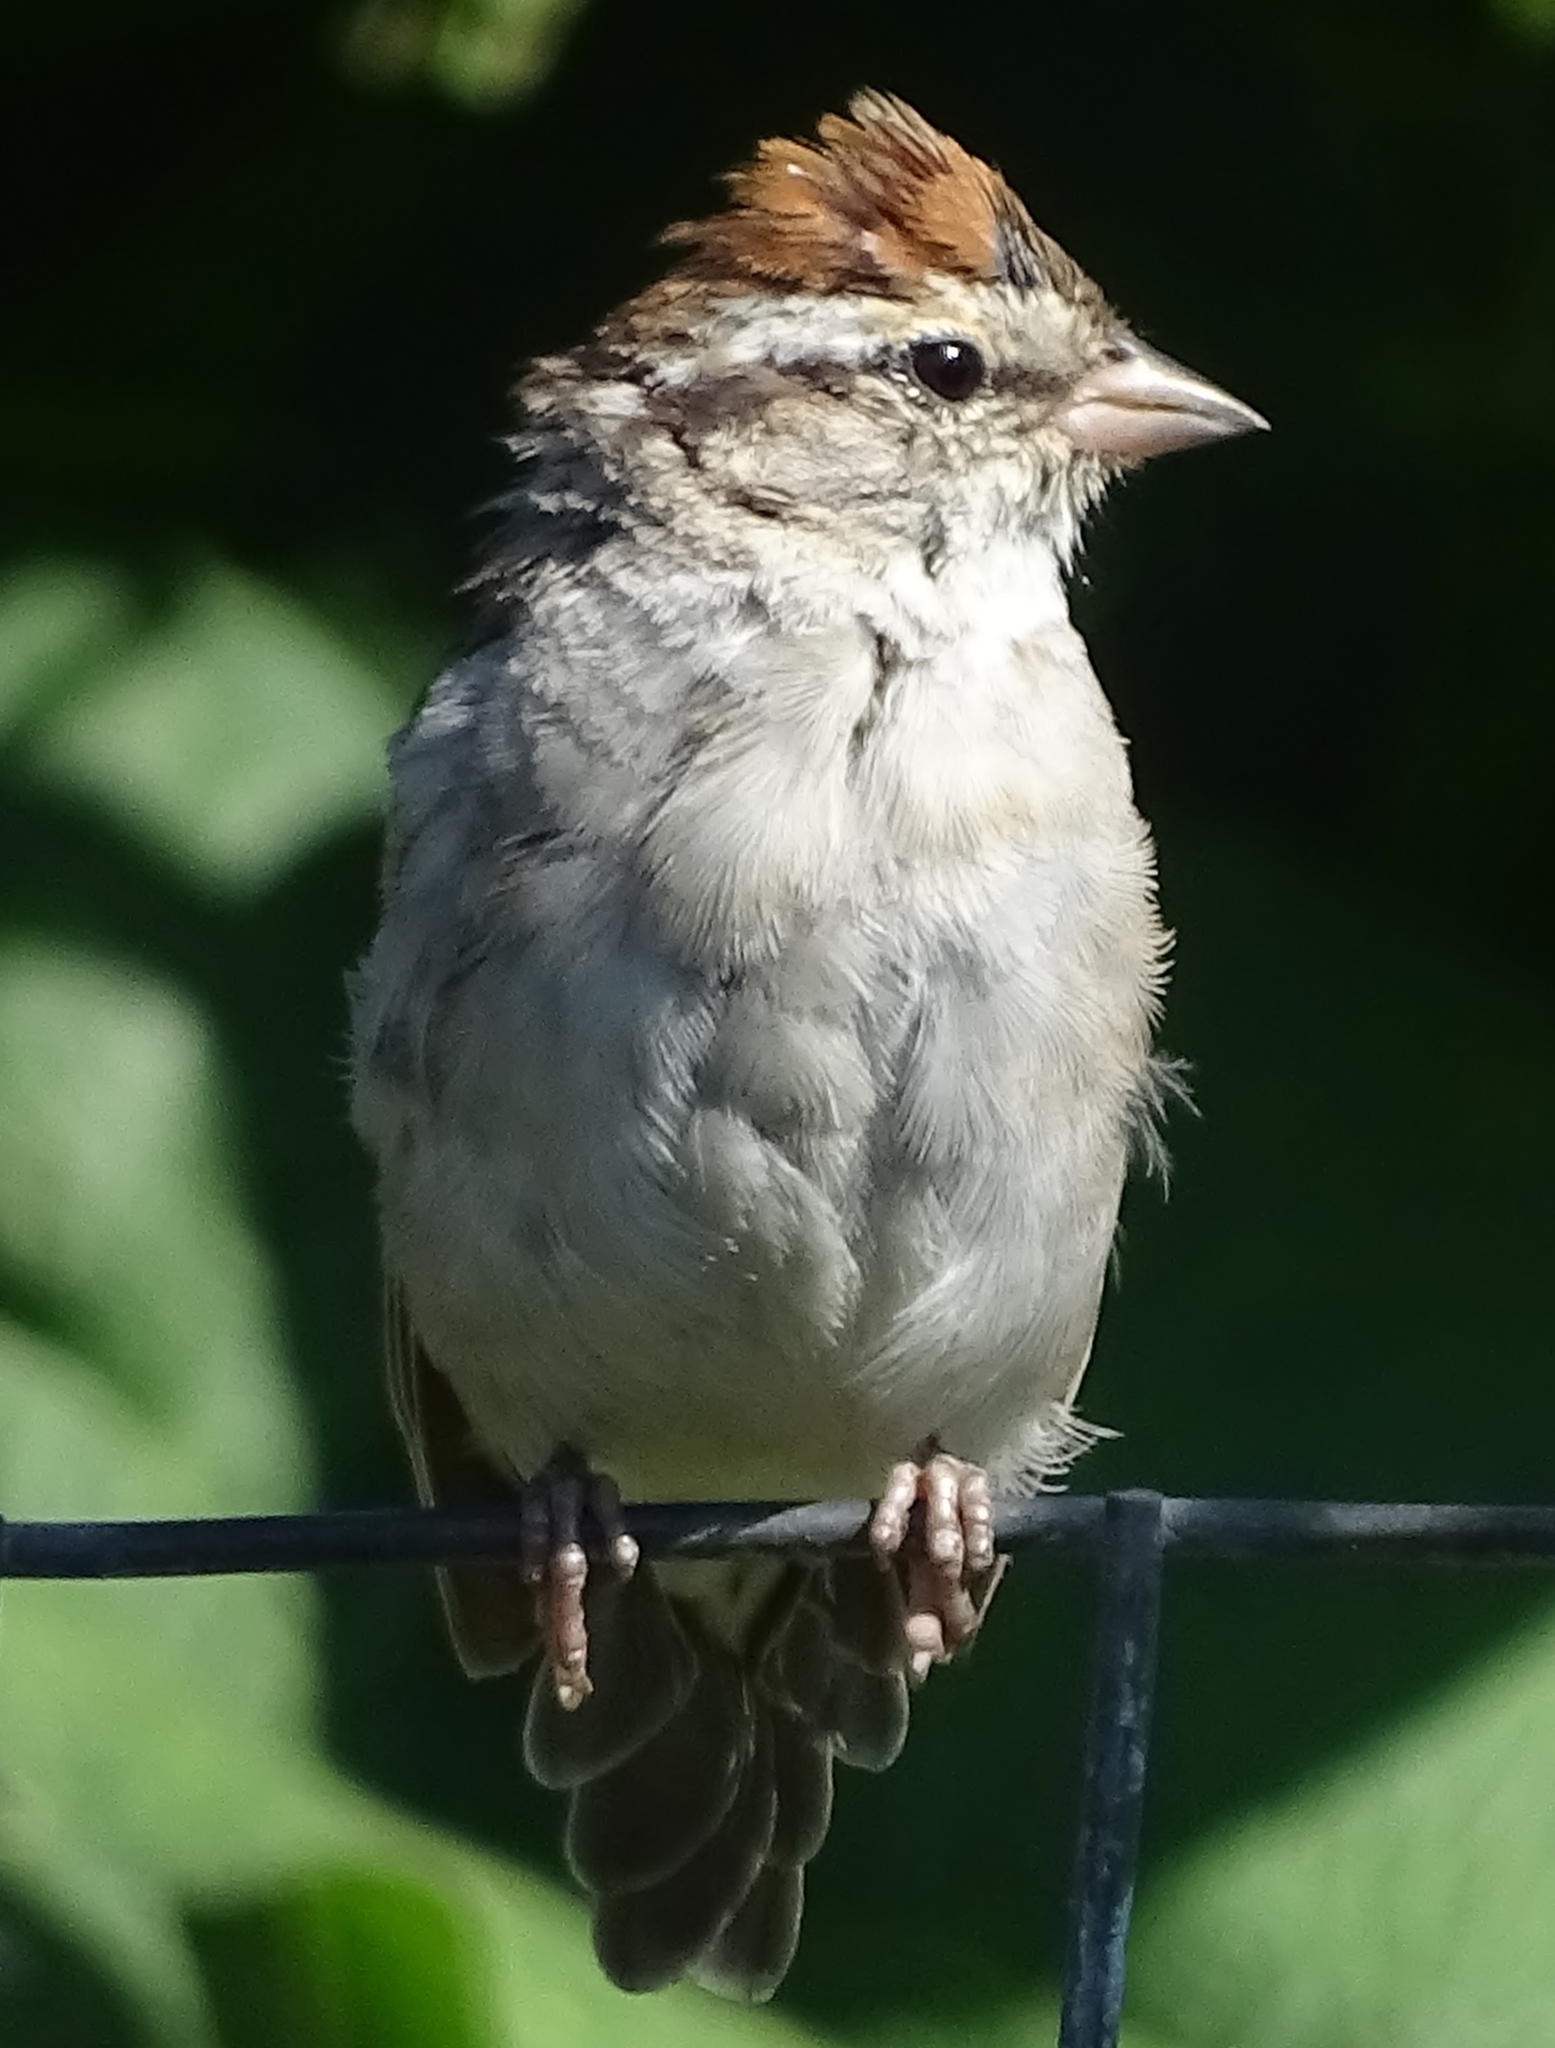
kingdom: Animalia
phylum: Chordata
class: Aves
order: Passeriformes
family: Passerellidae
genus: Spizella
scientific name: Spizella passerina
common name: Chipping sparrow
